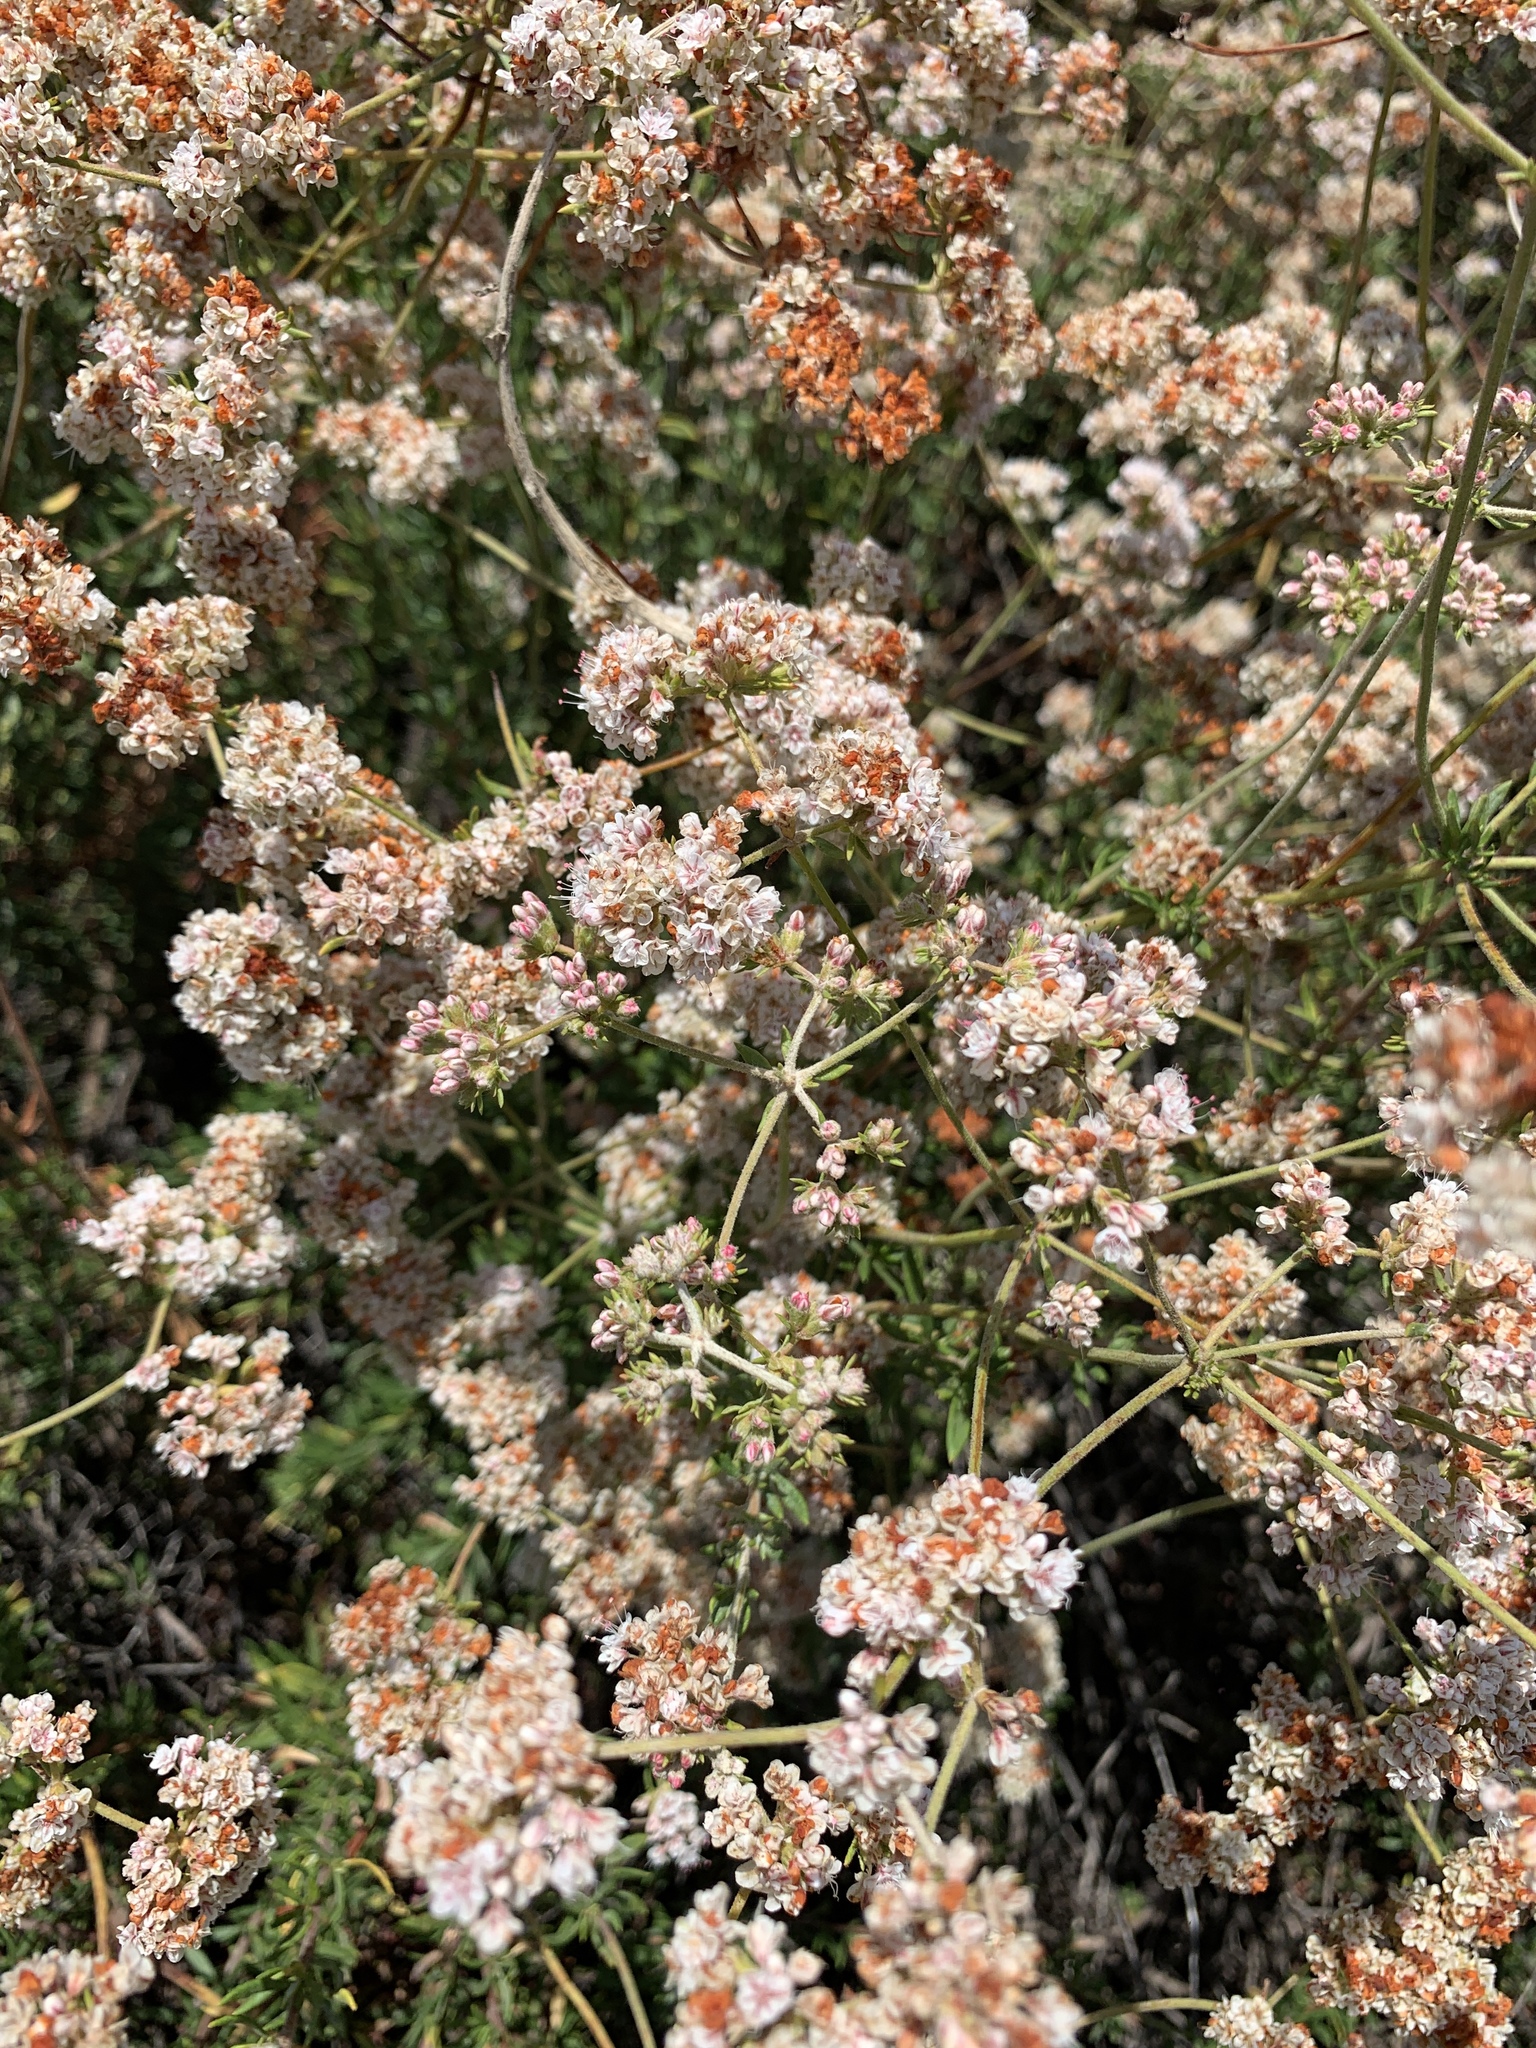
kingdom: Plantae
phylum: Tracheophyta
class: Magnoliopsida
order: Caryophyllales
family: Polygonaceae
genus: Eriogonum
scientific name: Eriogonum fasciculatum
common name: California wild buckwheat
